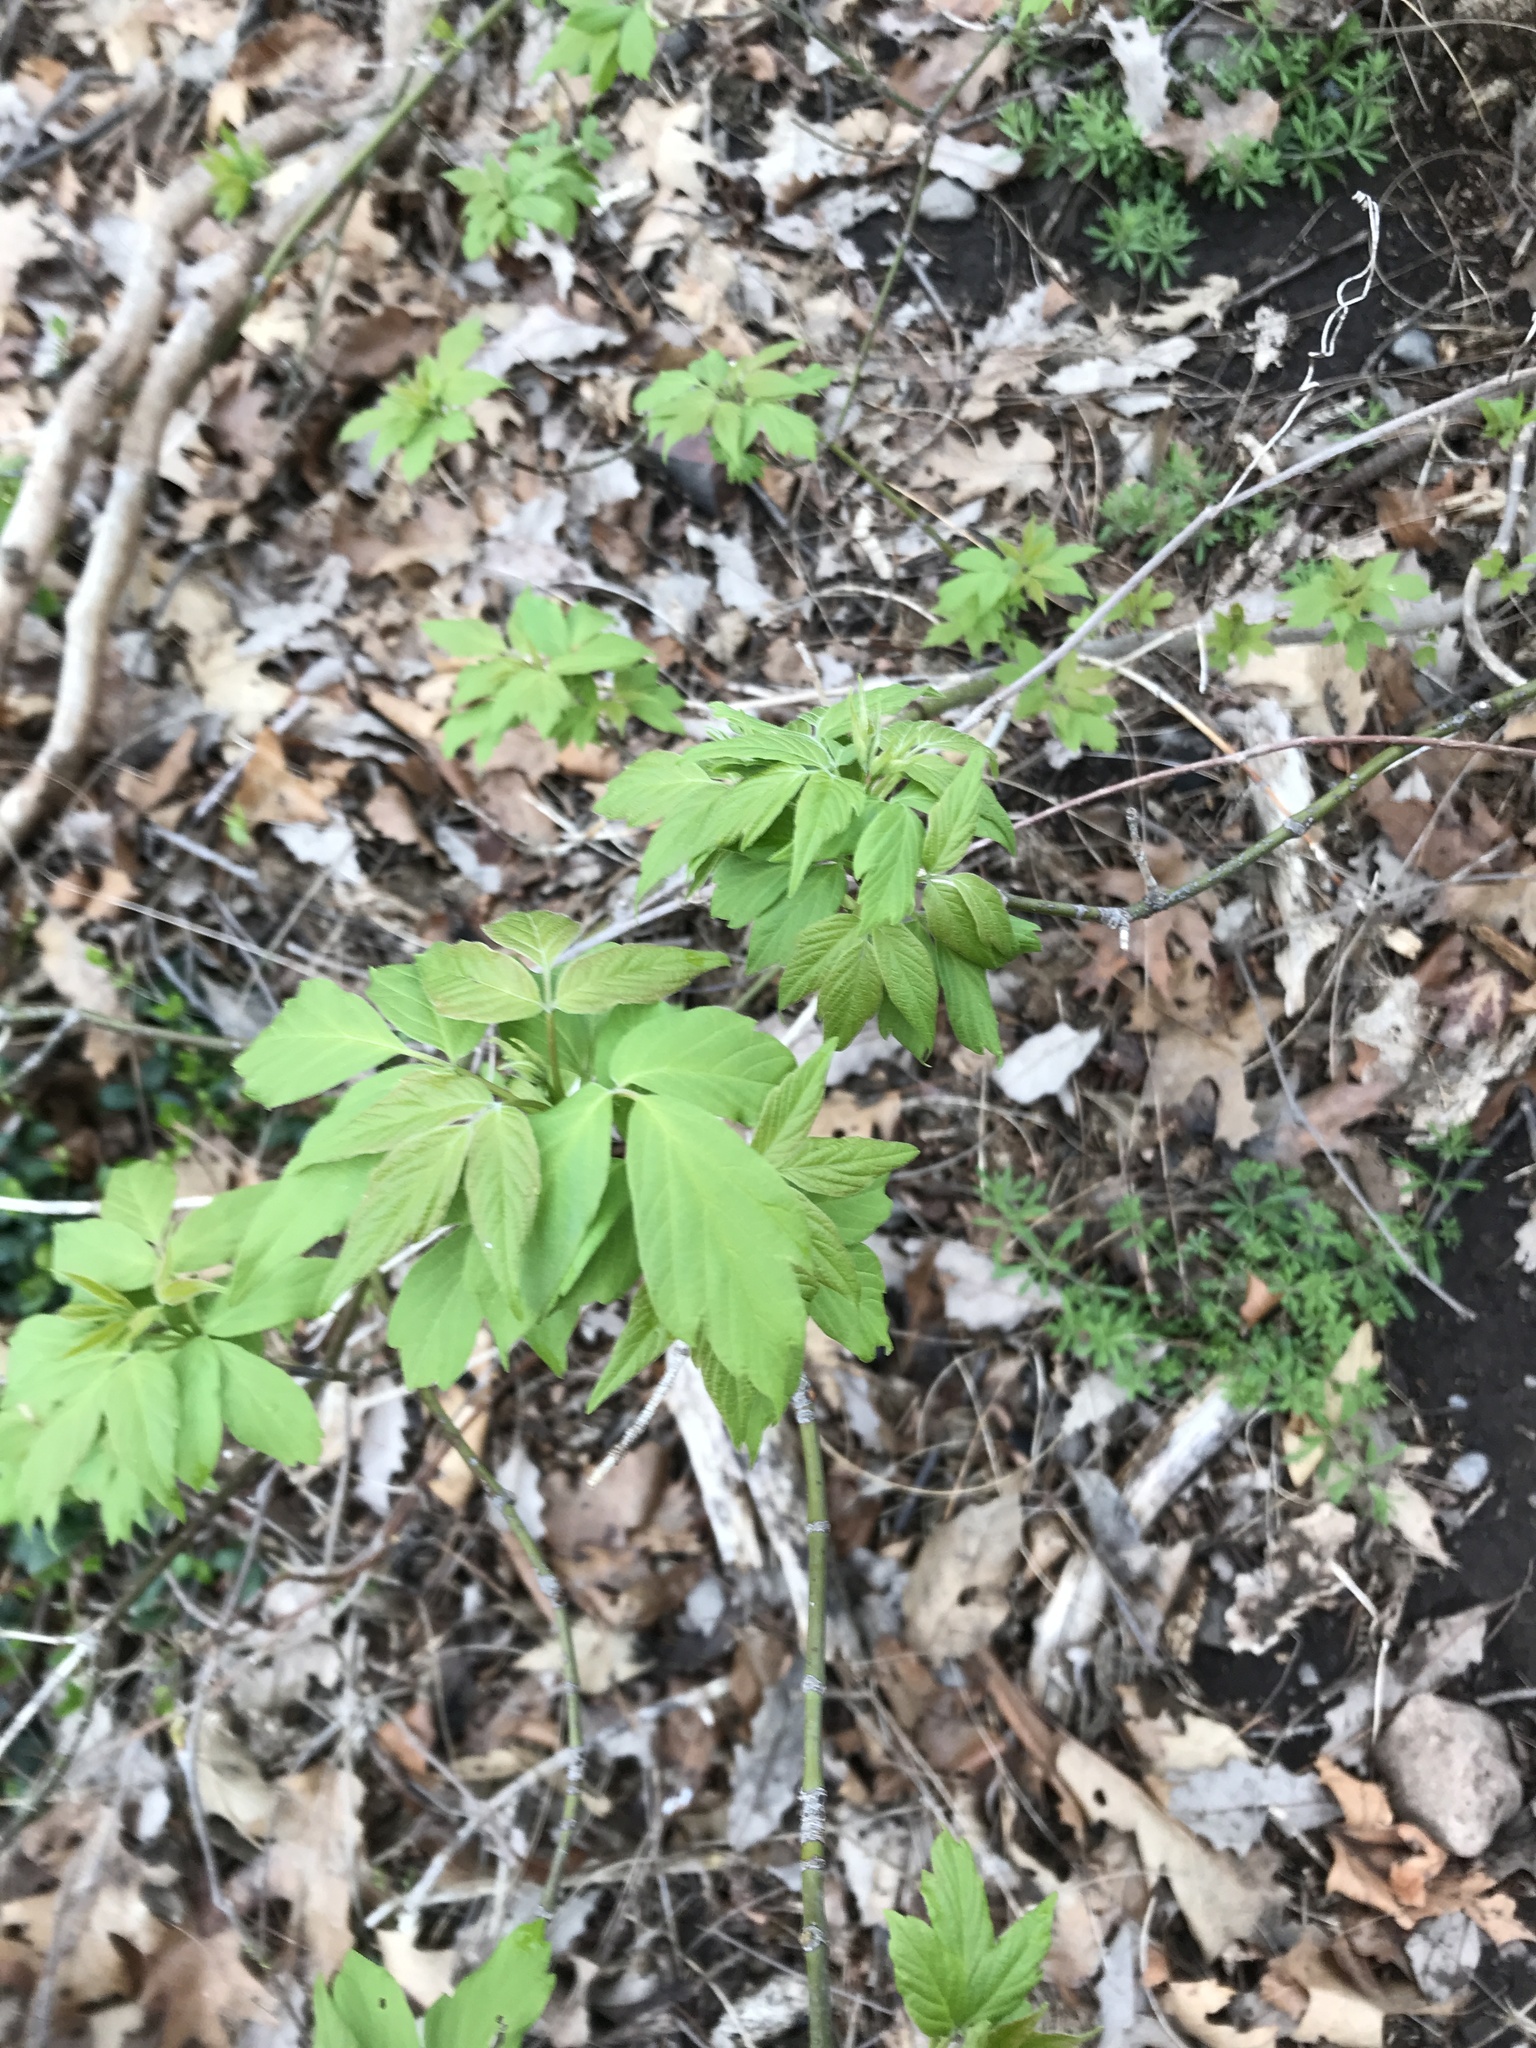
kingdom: Plantae
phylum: Tracheophyta
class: Magnoliopsida
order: Sapindales
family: Sapindaceae
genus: Acer
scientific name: Acer negundo
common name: Ashleaf maple
